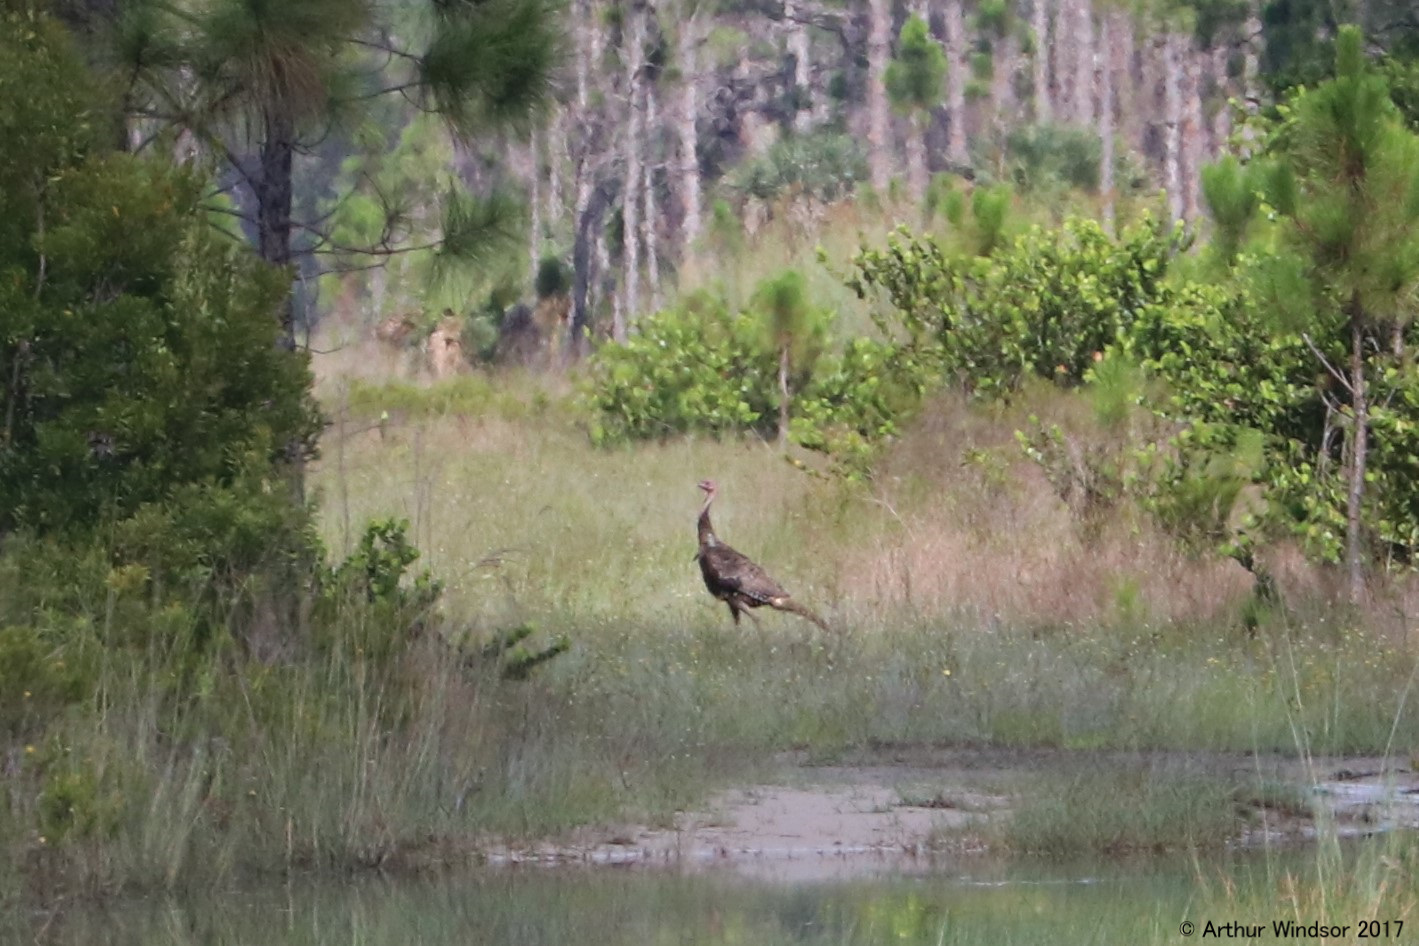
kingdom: Animalia
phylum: Chordata
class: Aves
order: Galliformes
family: Phasianidae
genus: Meleagris
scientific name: Meleagris gallopavo
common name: Wild turkey
